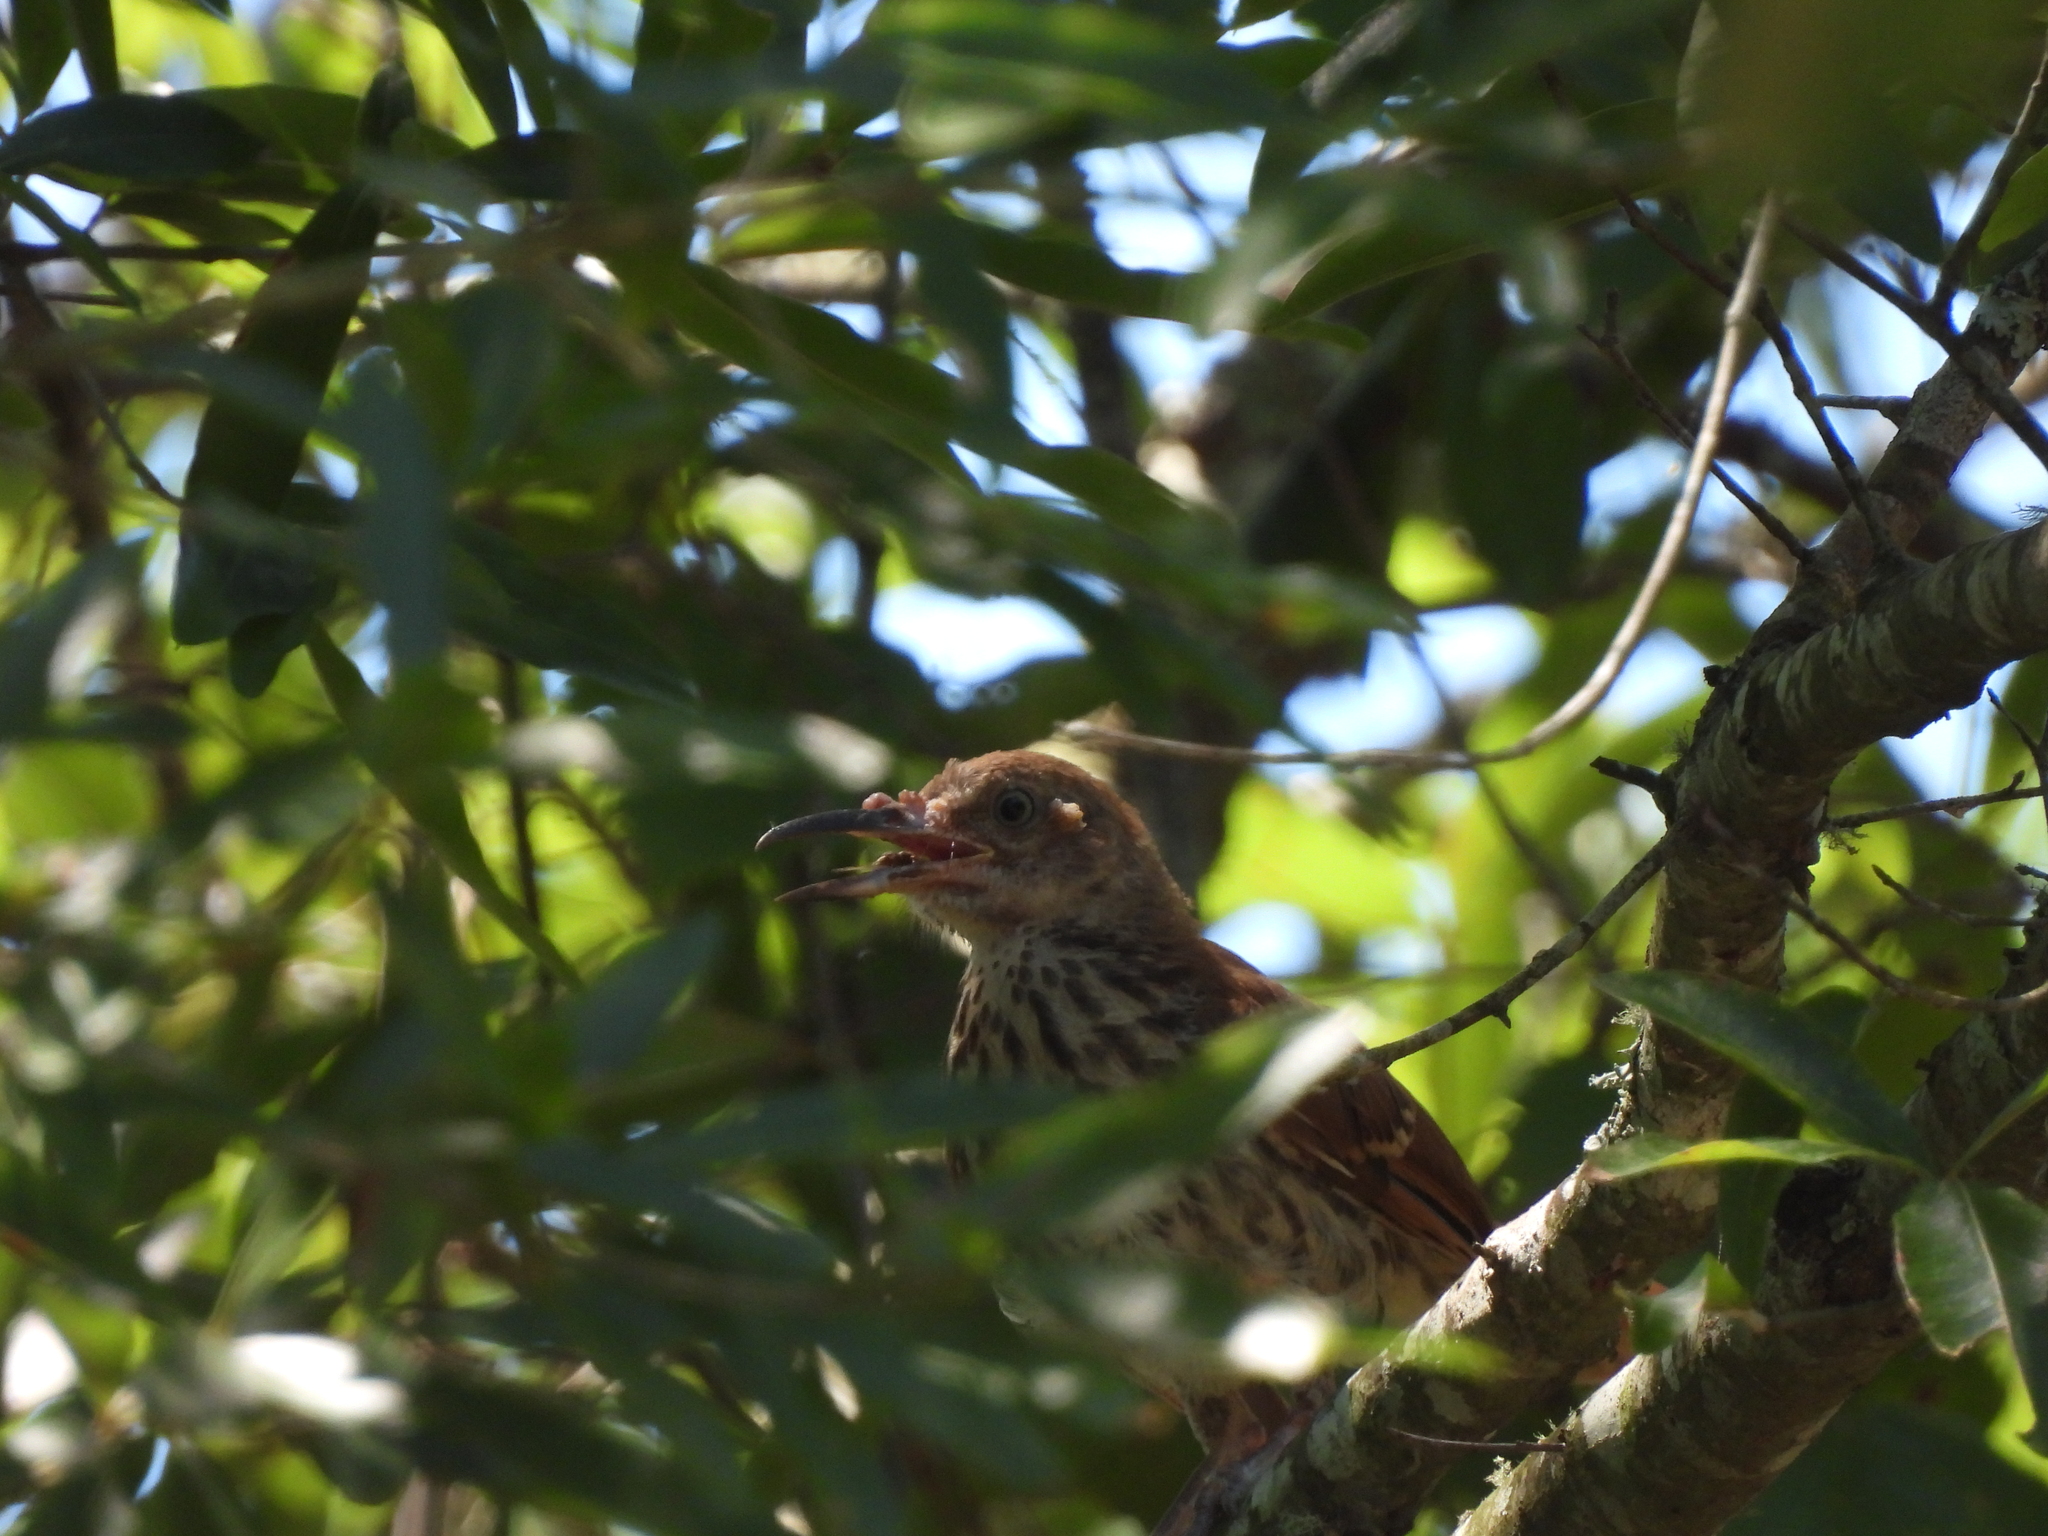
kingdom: Animalia
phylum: Chordata
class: Aves
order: Passeriformes
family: Mimidae
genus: Toxostoma
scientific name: Toxostoma rufum
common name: Brown thrasher
